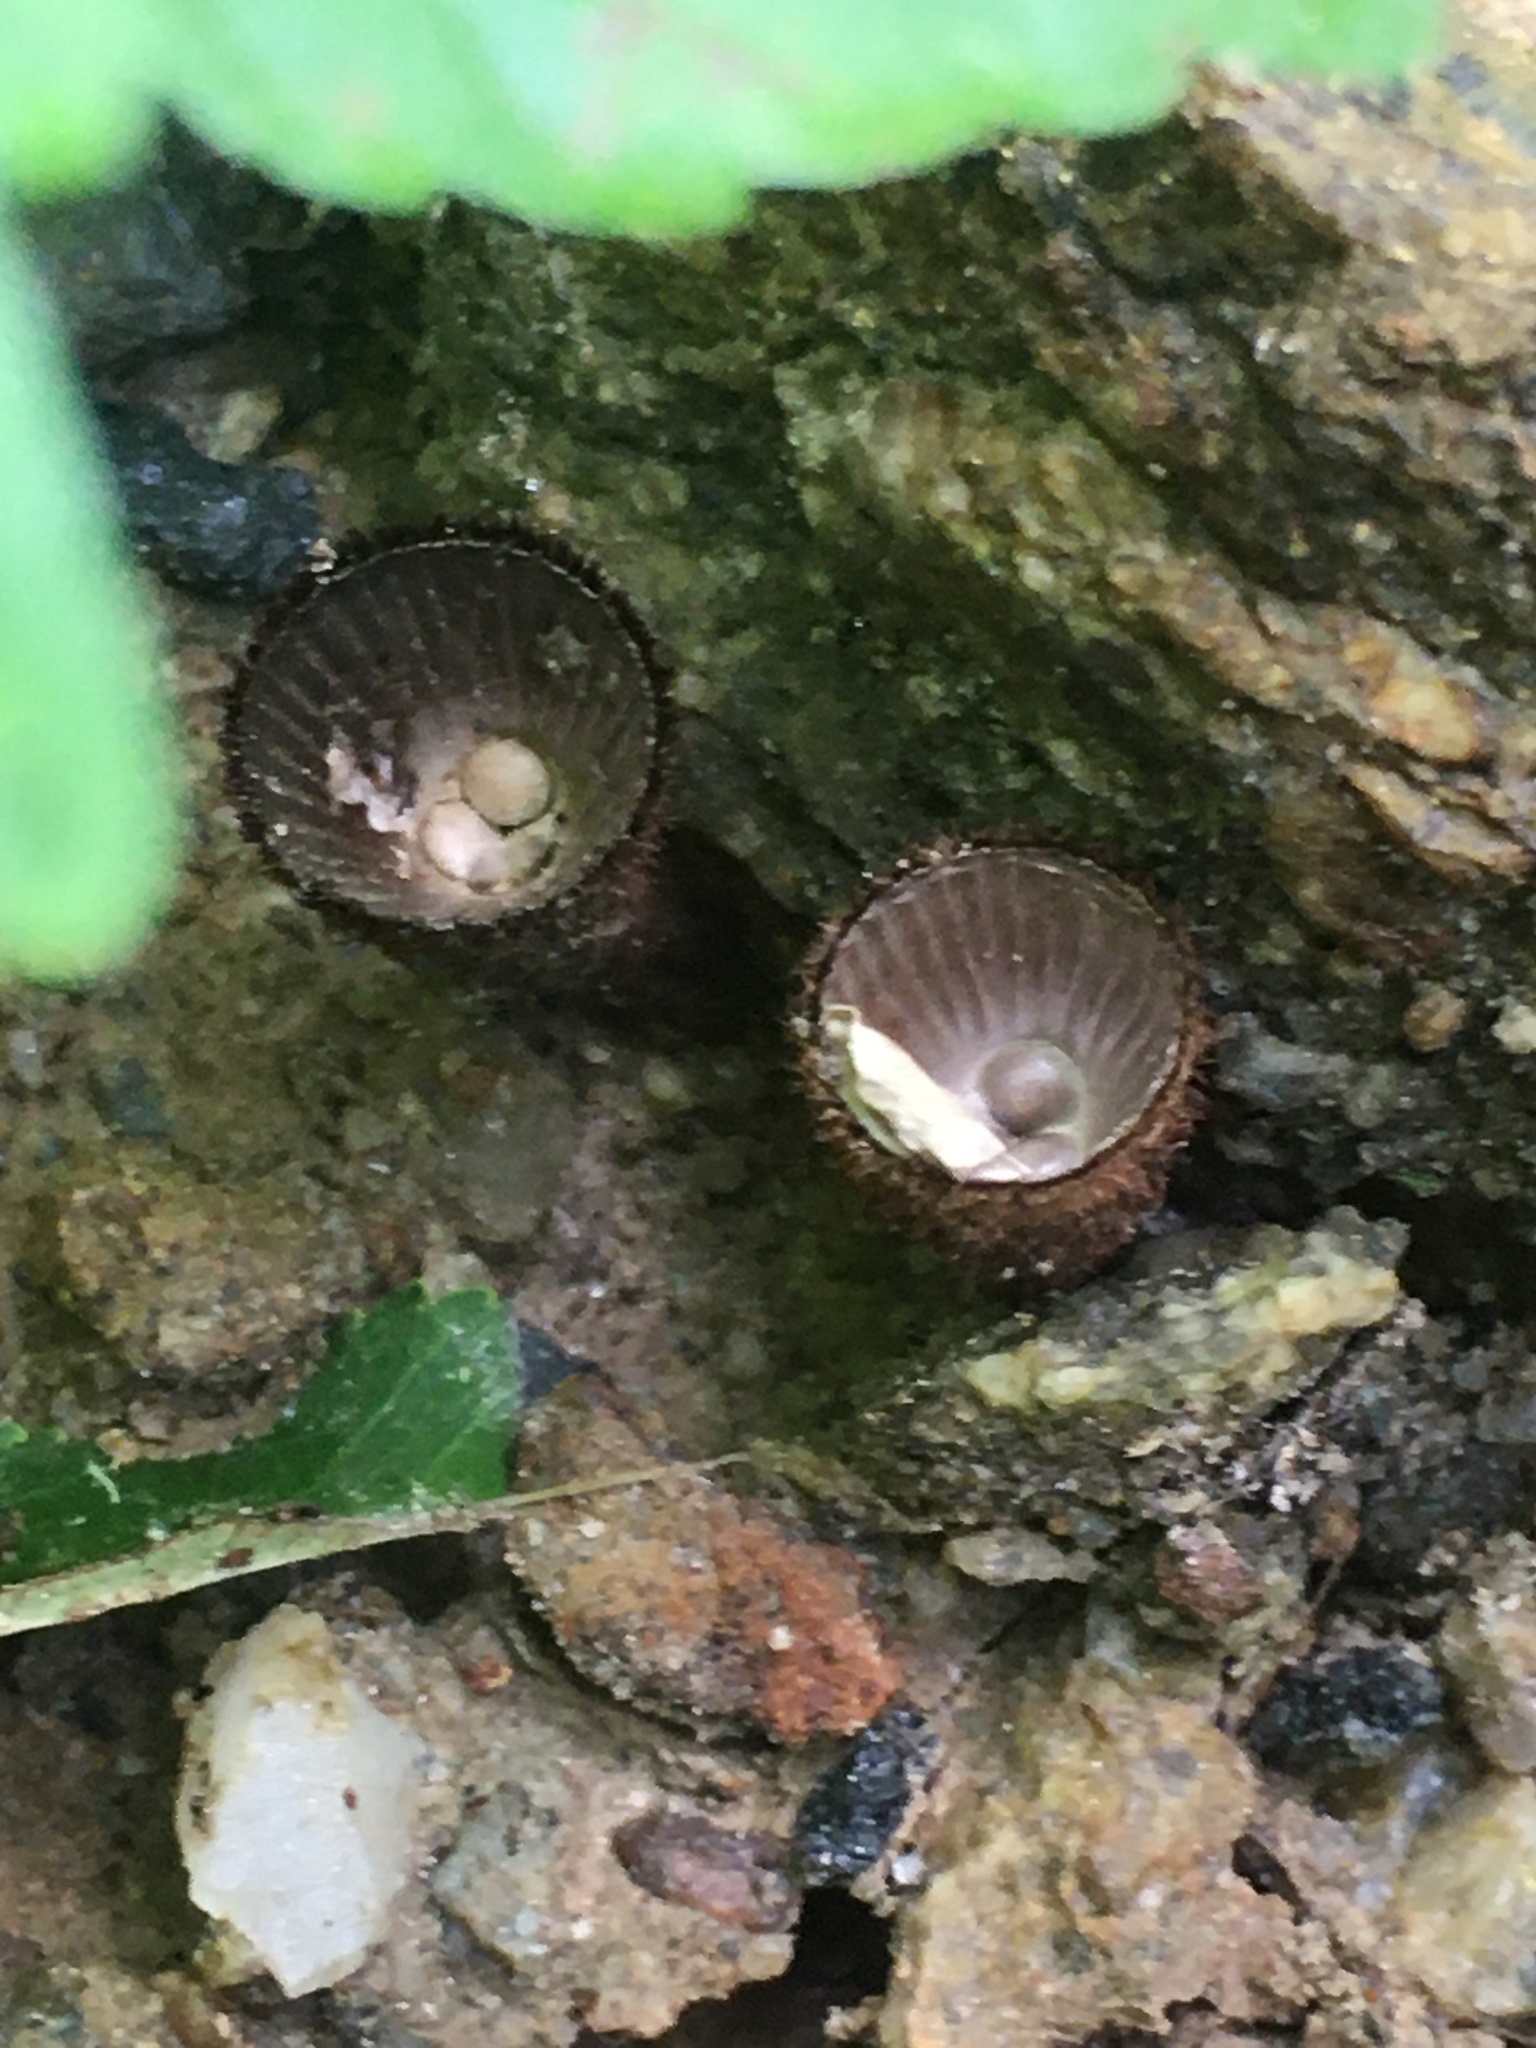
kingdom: Fungi
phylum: Basidiomycota
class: Agaricomycetes
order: Agaricales
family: Agaricaceae
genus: Cyathus
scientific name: Cyathus striatus
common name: Fluted bird's nest
